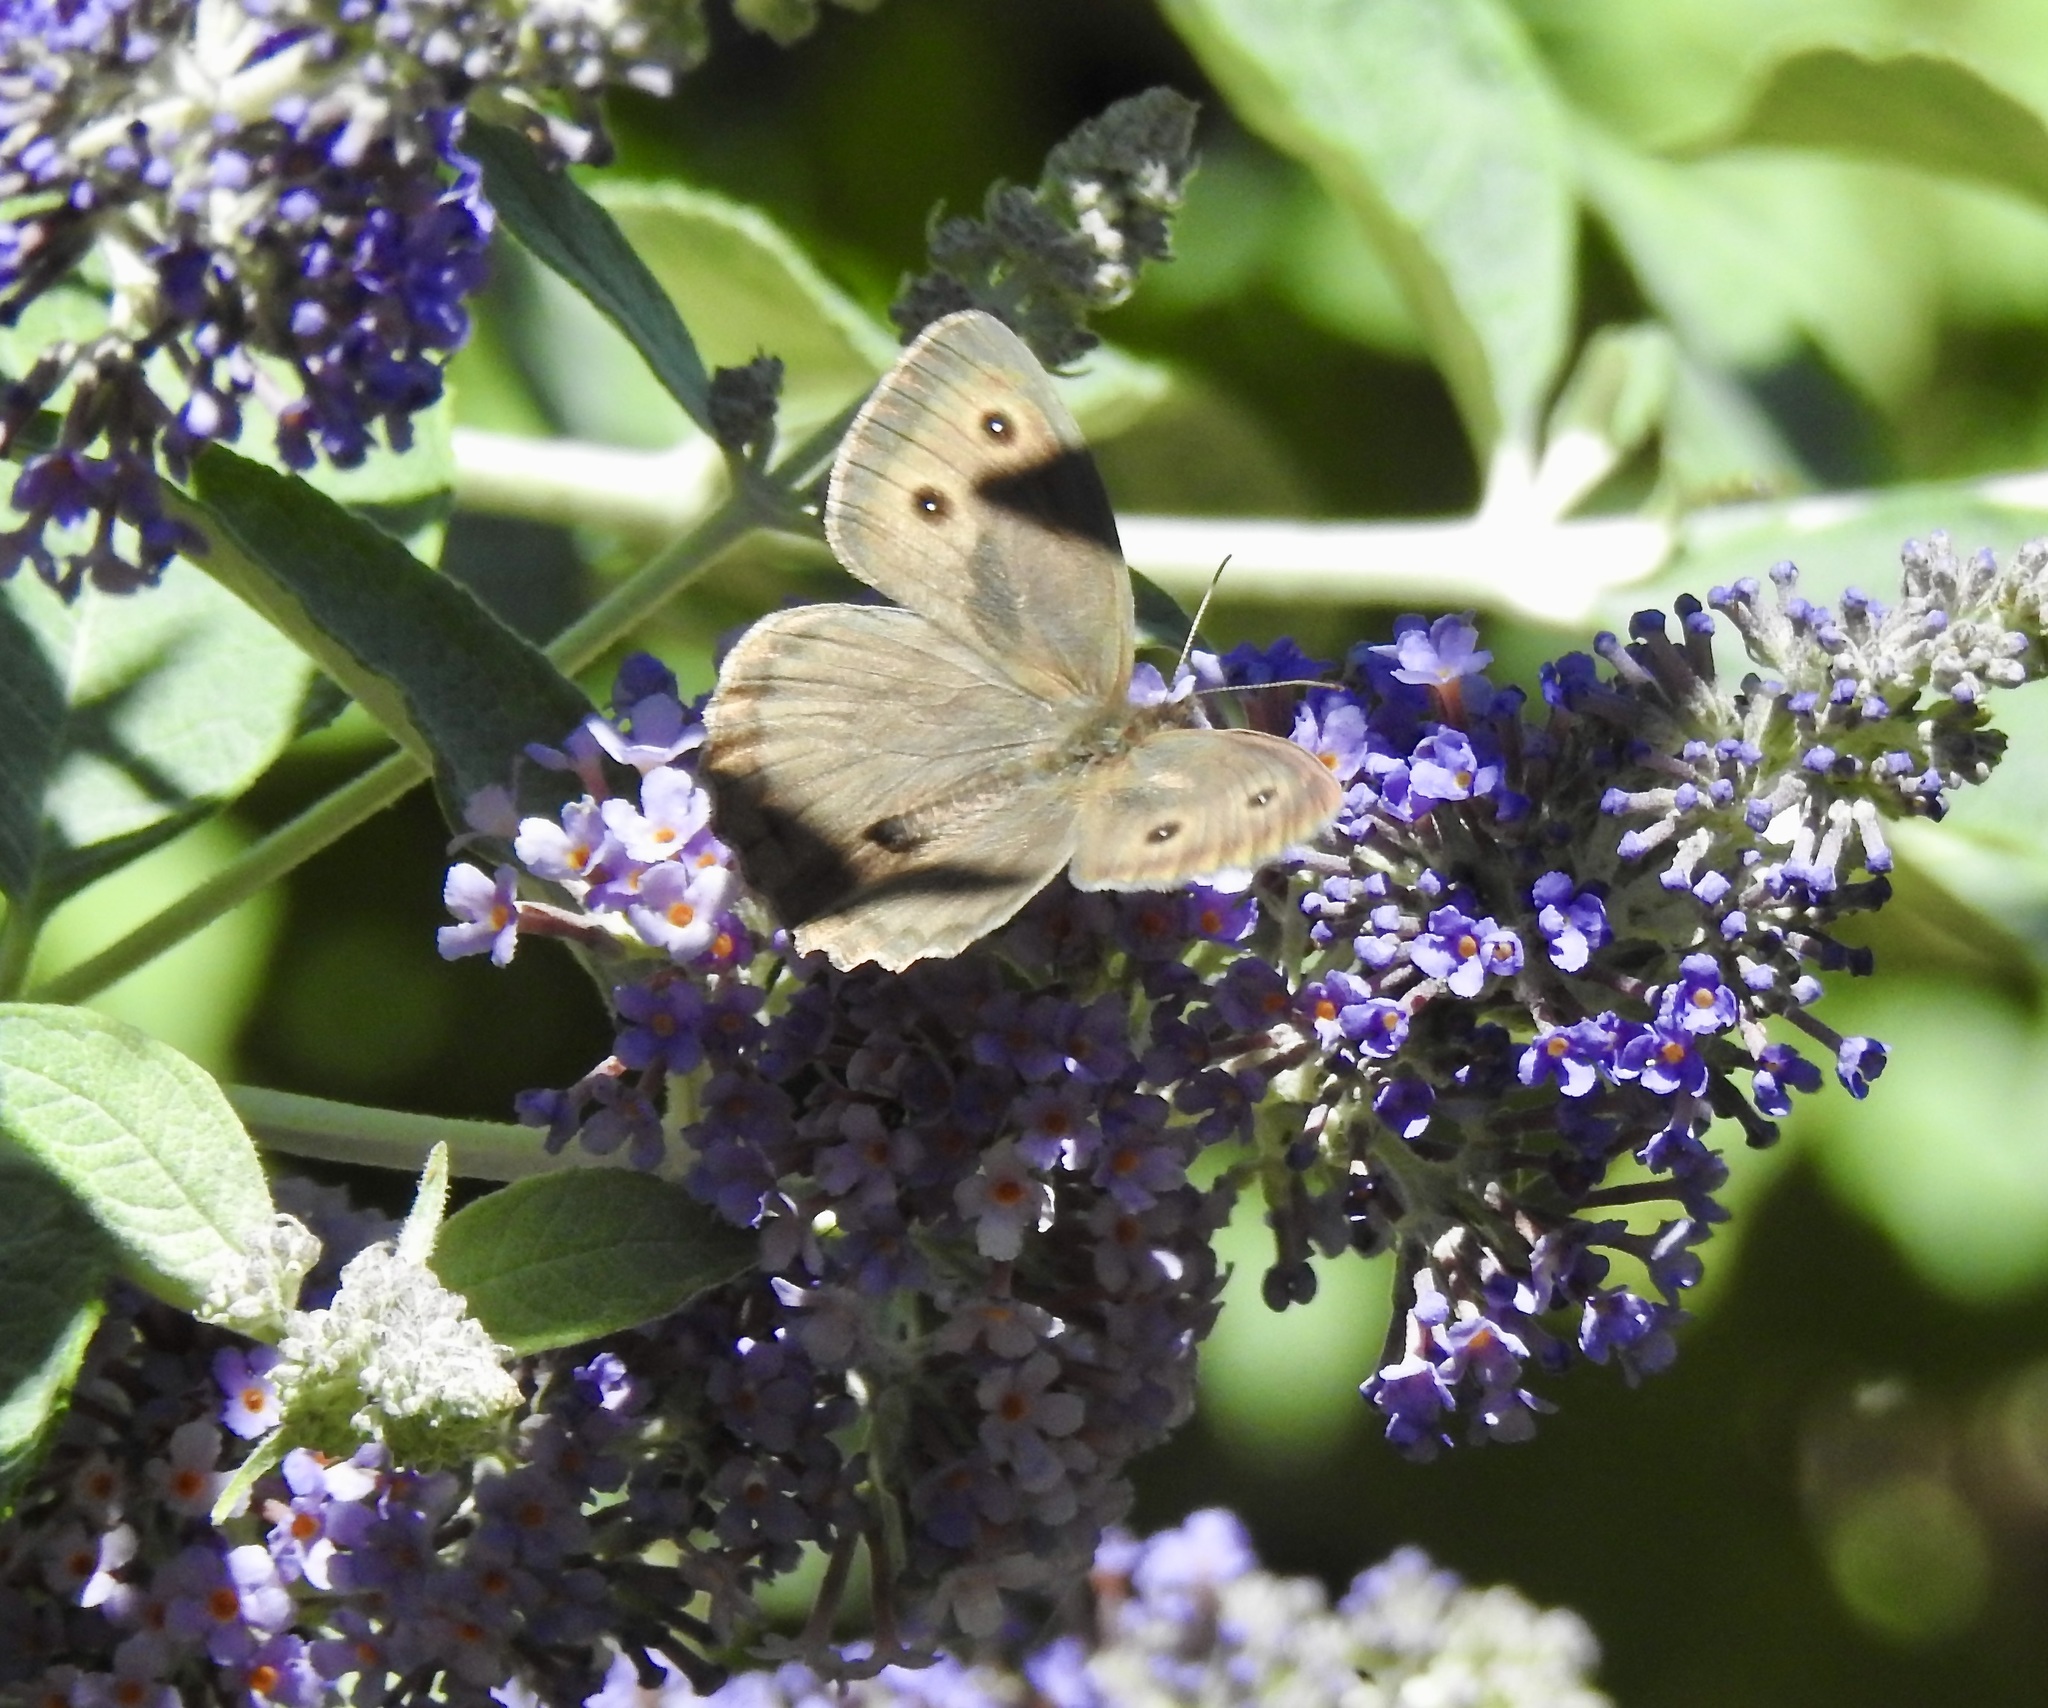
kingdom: Animalia
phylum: Arthropoda
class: Insecta
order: Lepidoptera
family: Nymphalidae
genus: Cercyonis
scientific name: Cercyonis pegala
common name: Common wood-nymph
